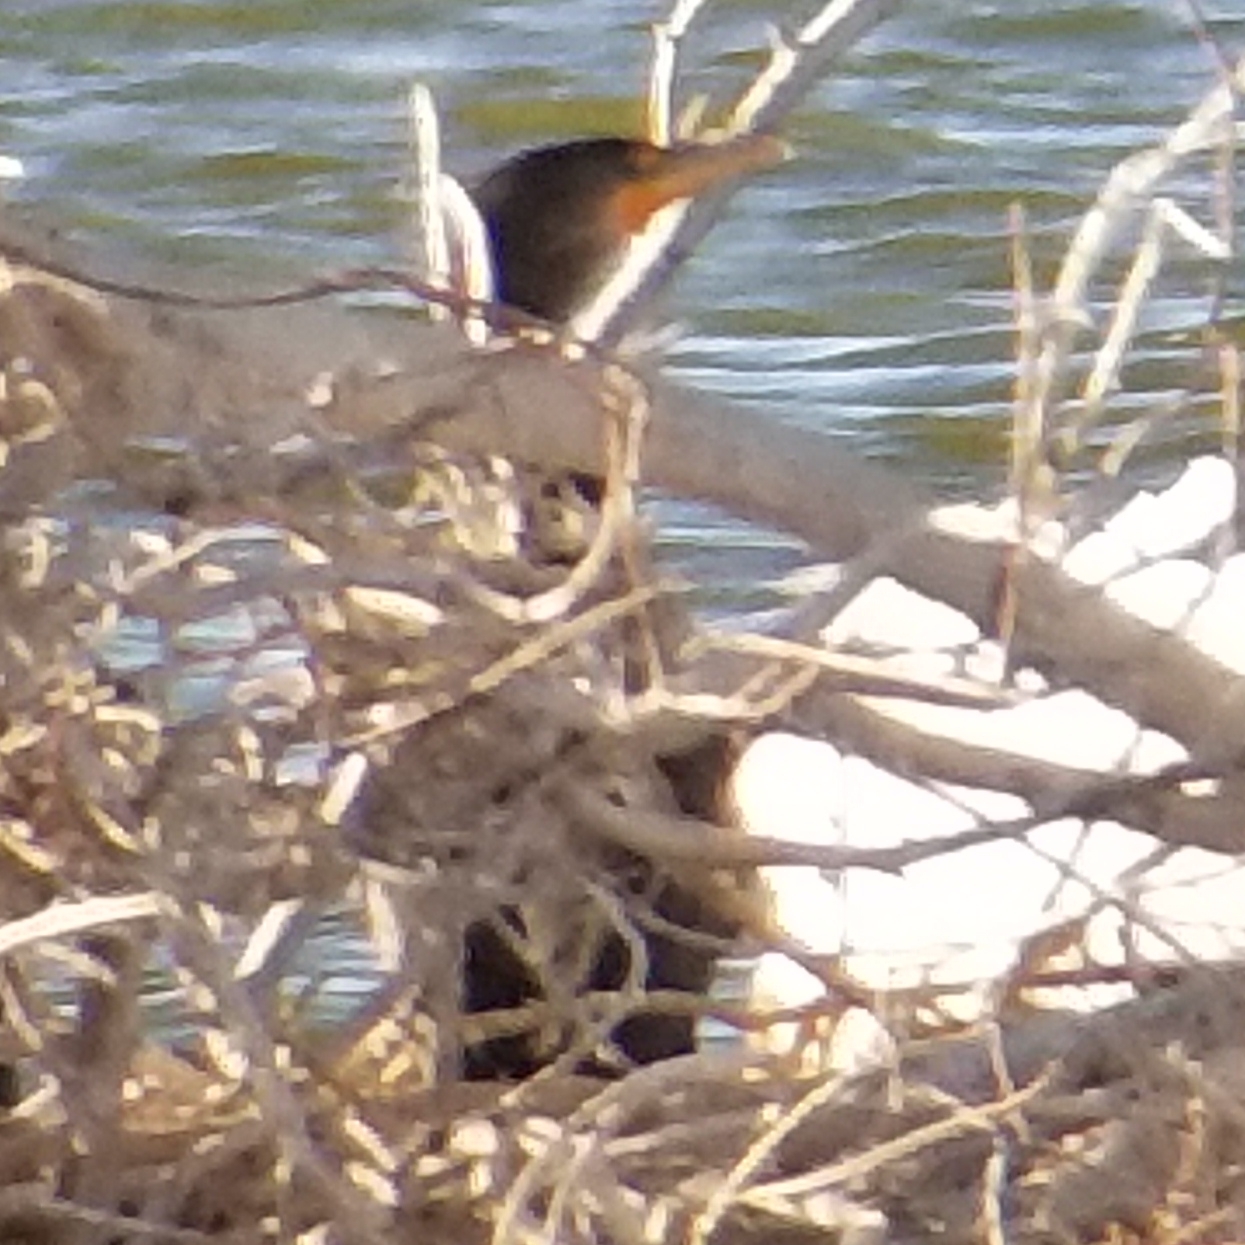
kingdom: Animalia
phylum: Chordata
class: Aves
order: Suliformes
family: Phalacrocoracidae
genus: Phalacrocorax
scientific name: Phalacrocorax auritus
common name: Double-crested cormorant
